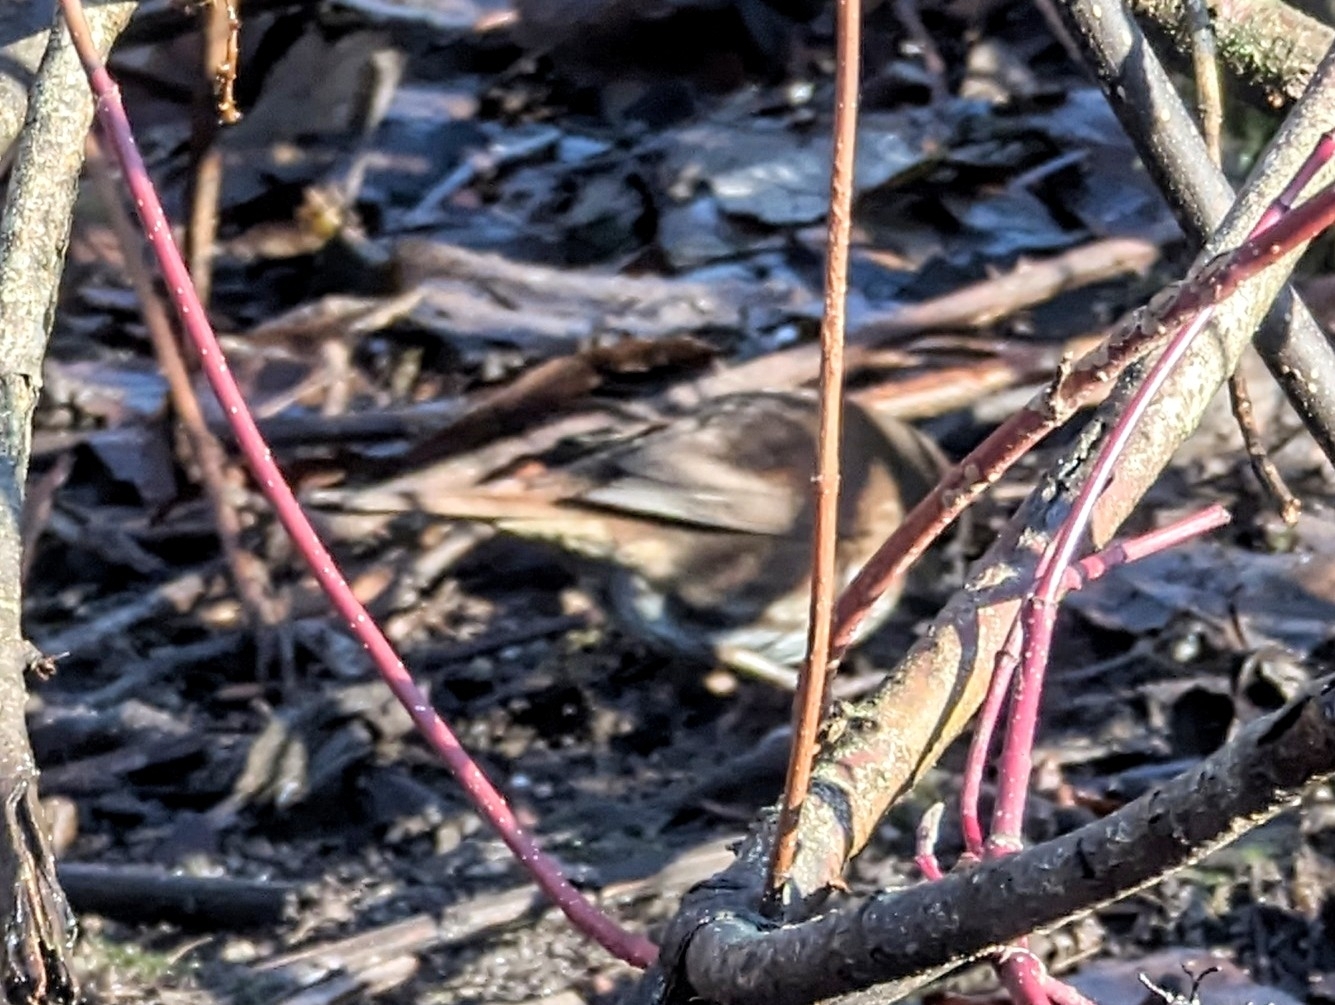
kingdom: Animalia
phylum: Chordata
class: Aves
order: Passeriformes
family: Passerellidae
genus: Passerella
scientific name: Passerella iliaca
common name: Fox sparrow
